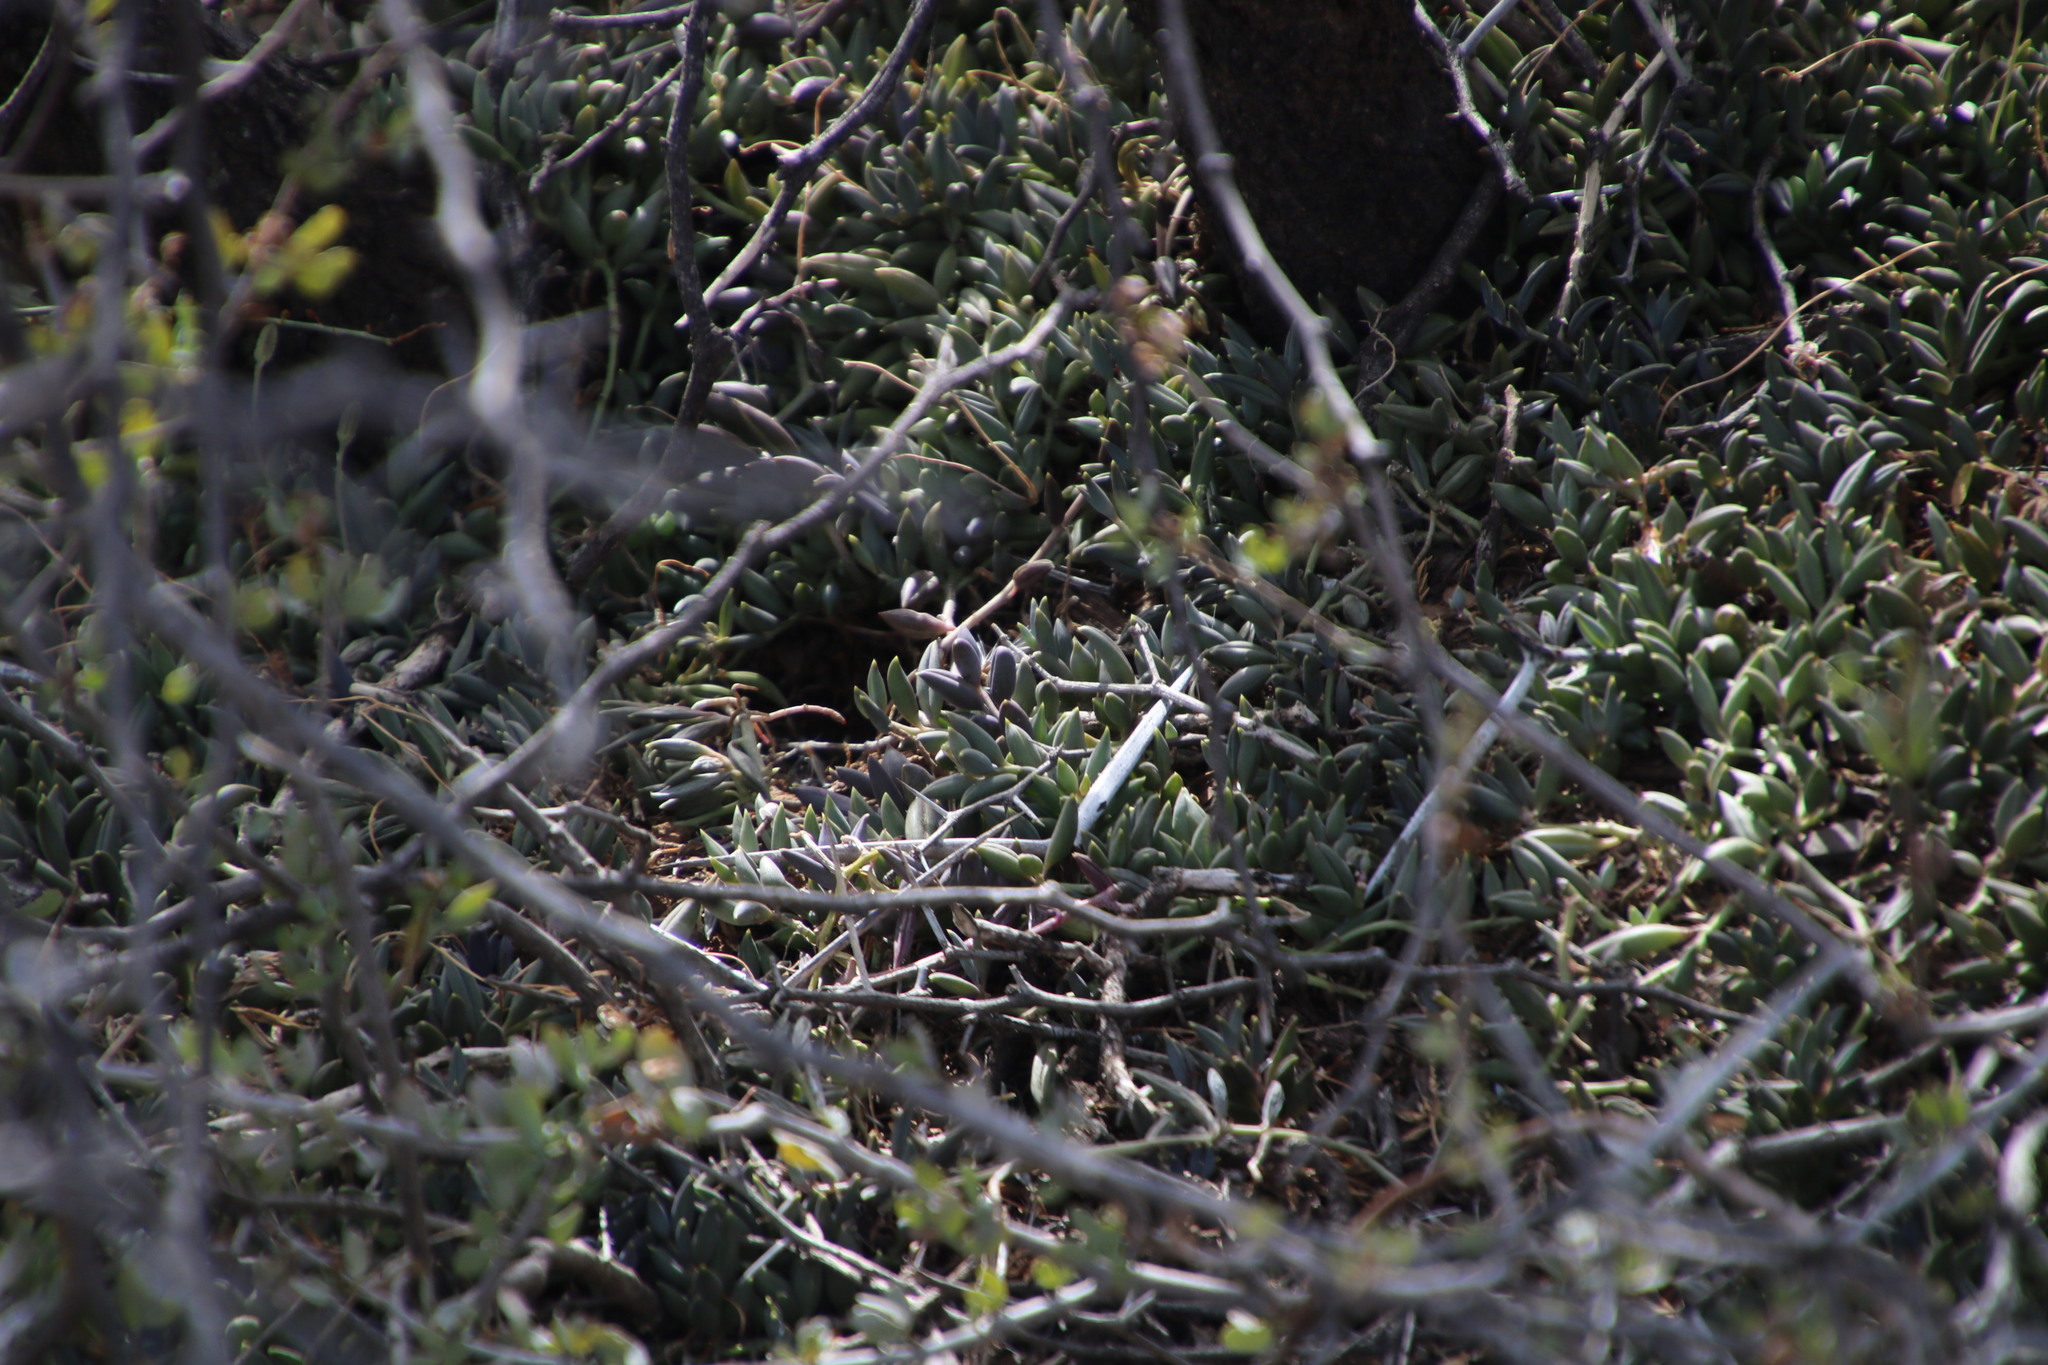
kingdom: Plantae
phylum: Tracheophyta
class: Magnoliopsida
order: Asterales
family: Asteraceae
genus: Curio
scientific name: Curio radicans
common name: Creeping-berry
